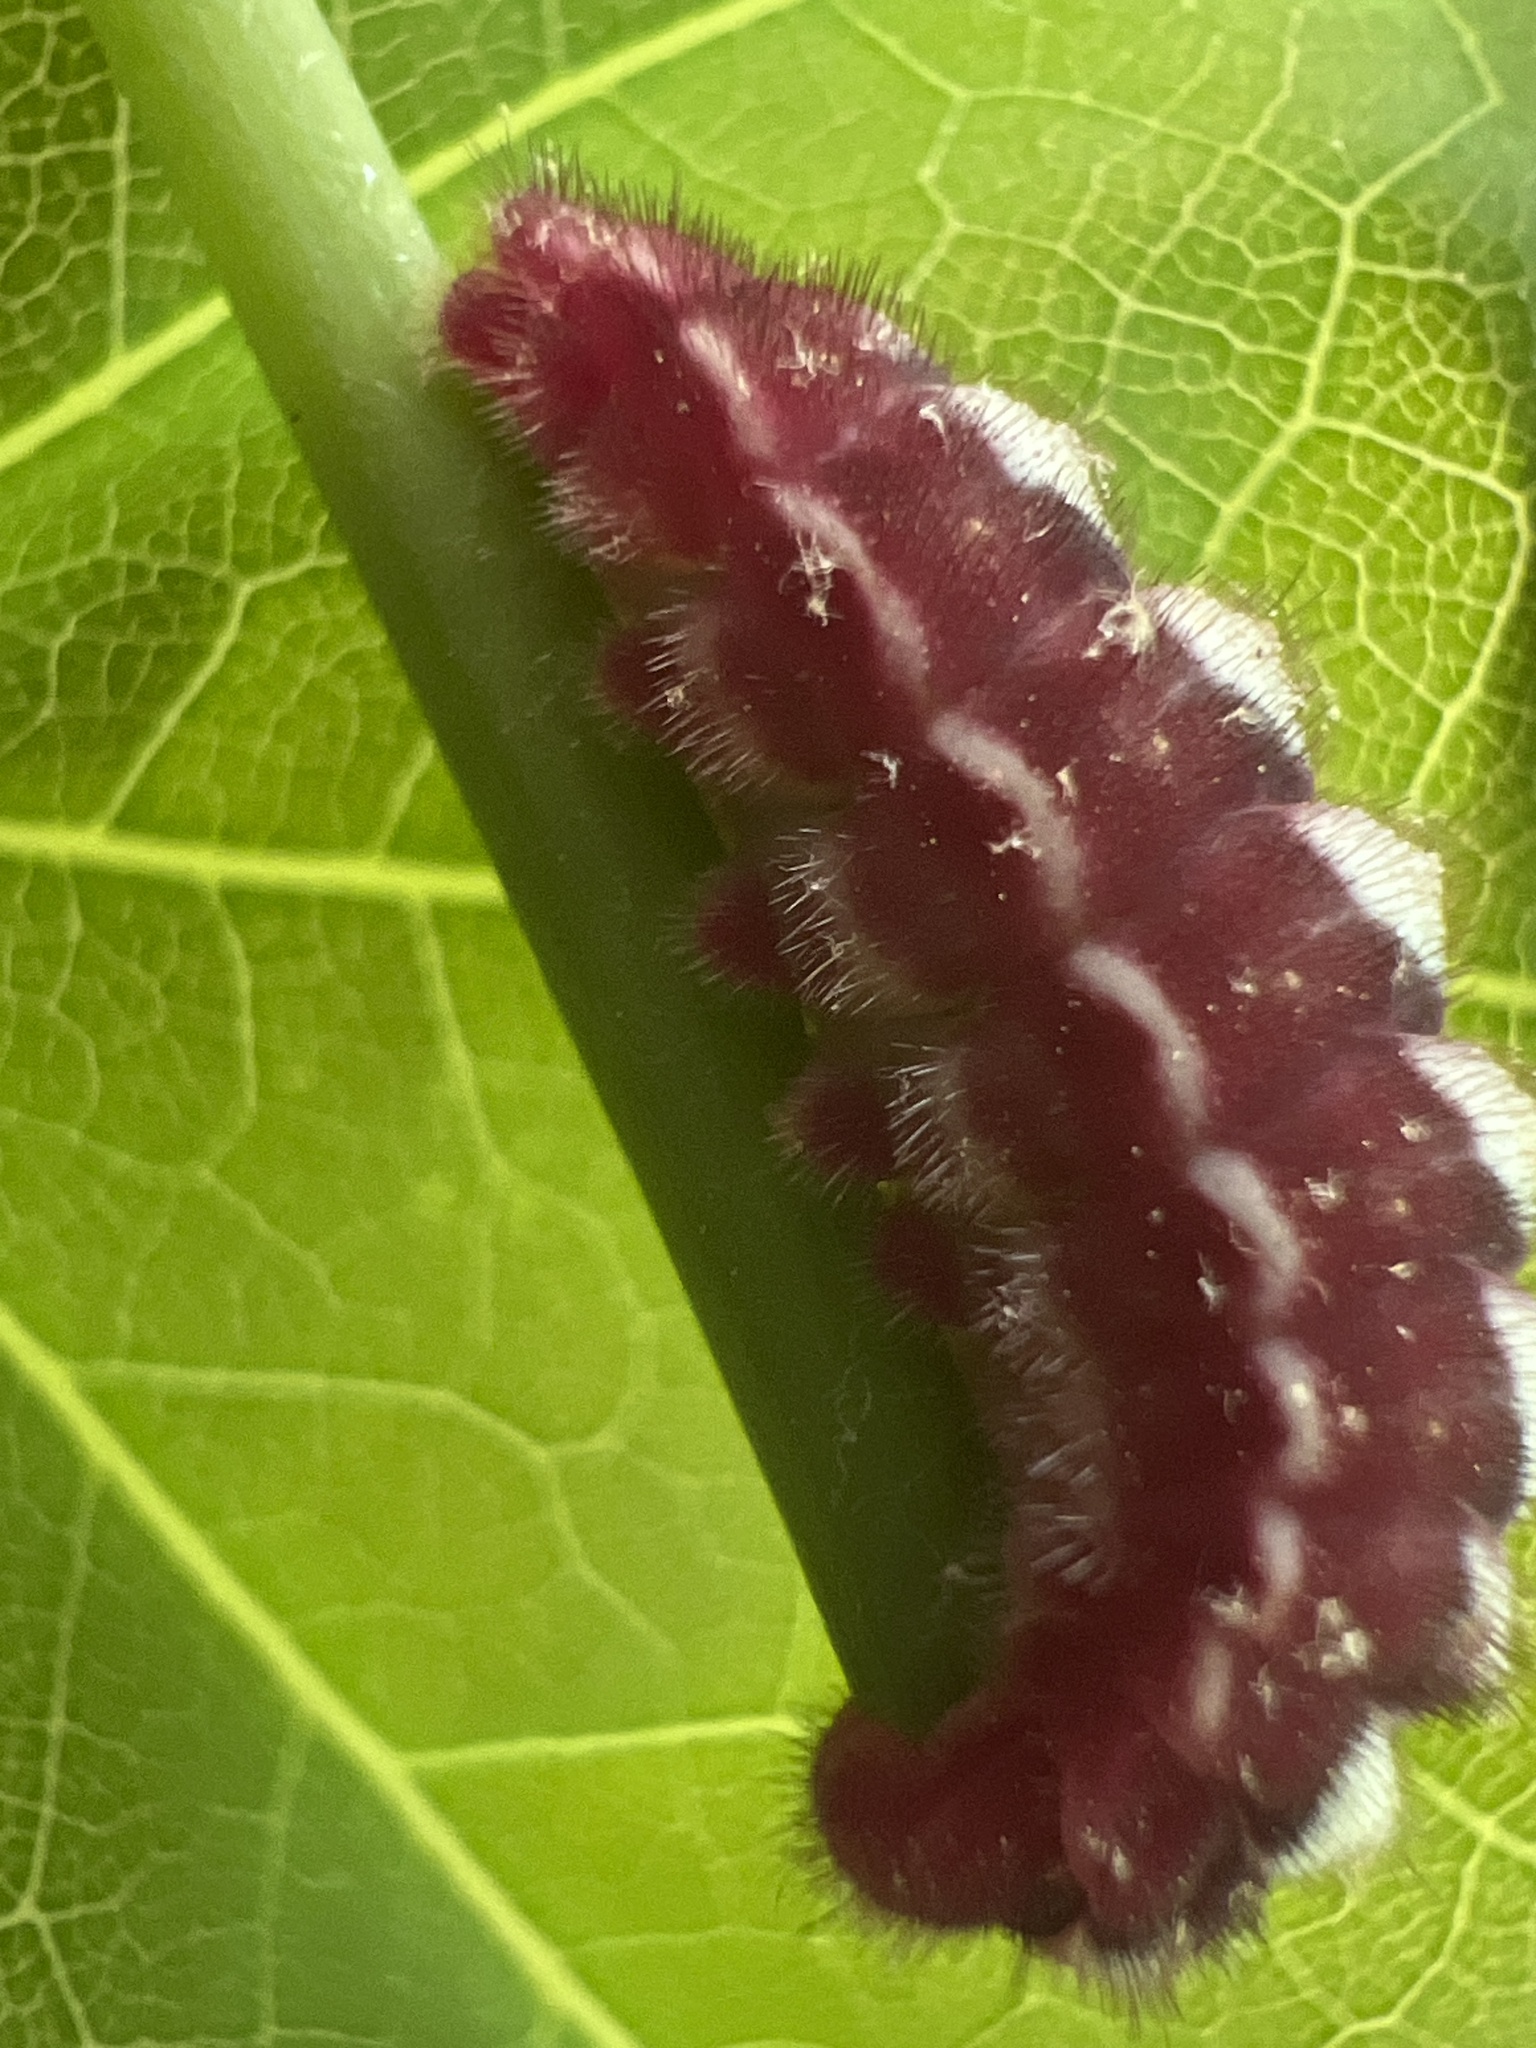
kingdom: Animalia
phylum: Arthropoda
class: Insecta
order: Lepidoptera
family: Lycaenidae
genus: Incisalia
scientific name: Incisalia henrici
